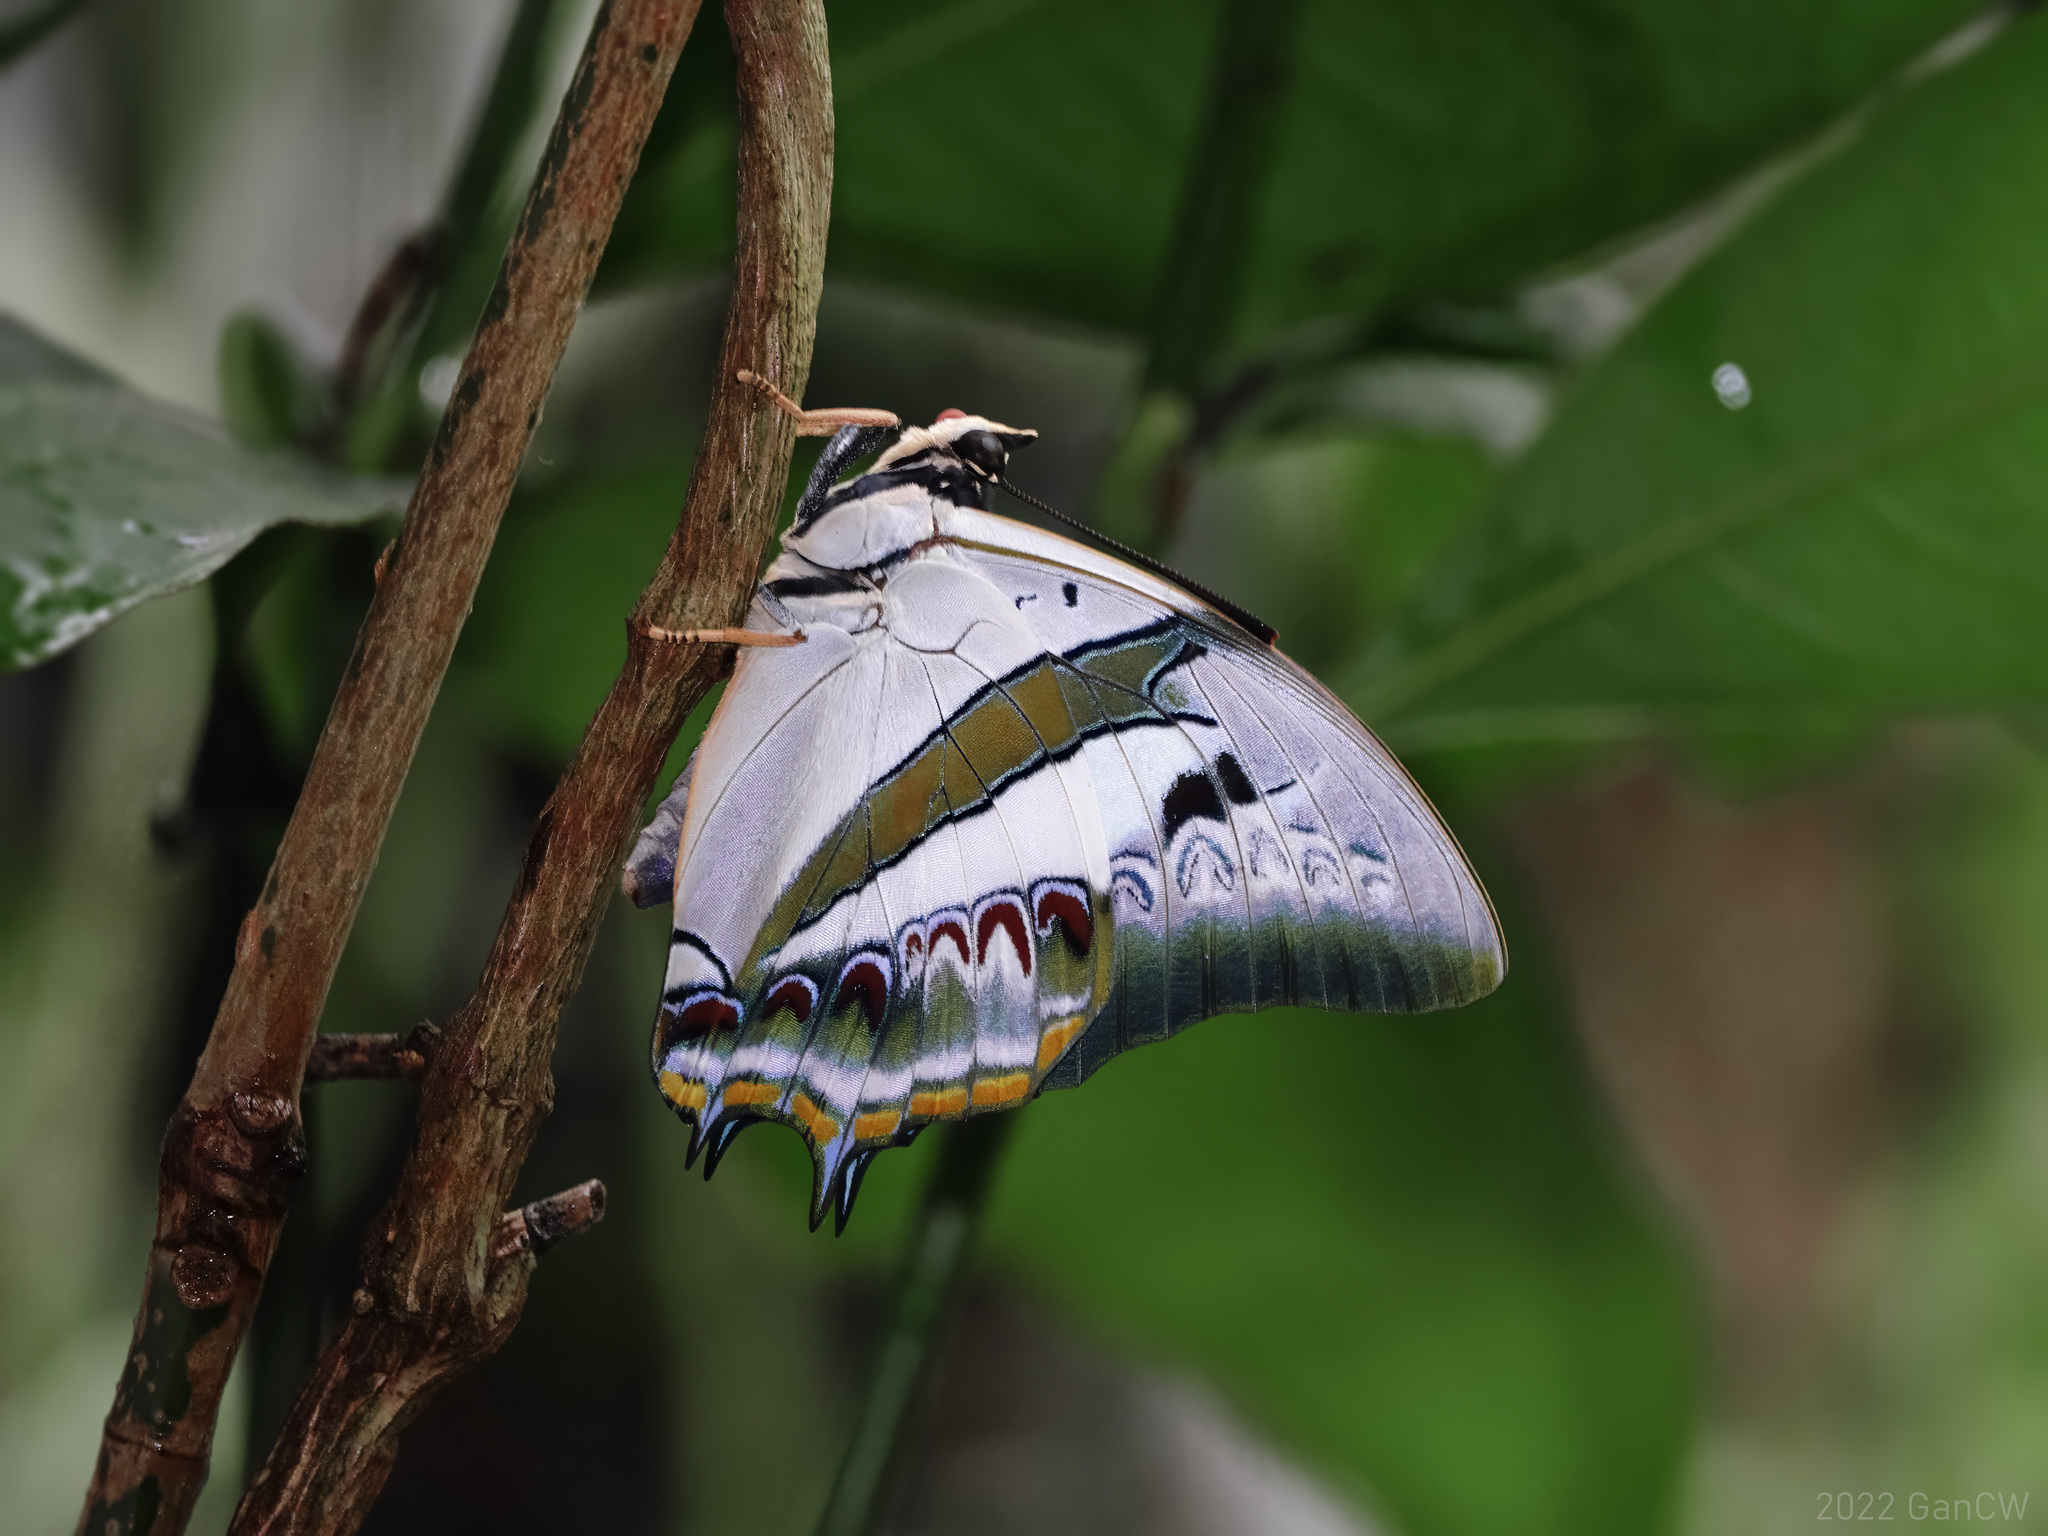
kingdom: Animalia
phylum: Arthropoda
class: Insecta
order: Lepidoptera
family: Nymphalidae
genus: Polyura
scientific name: Polyura schreiber
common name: Blue nawab
